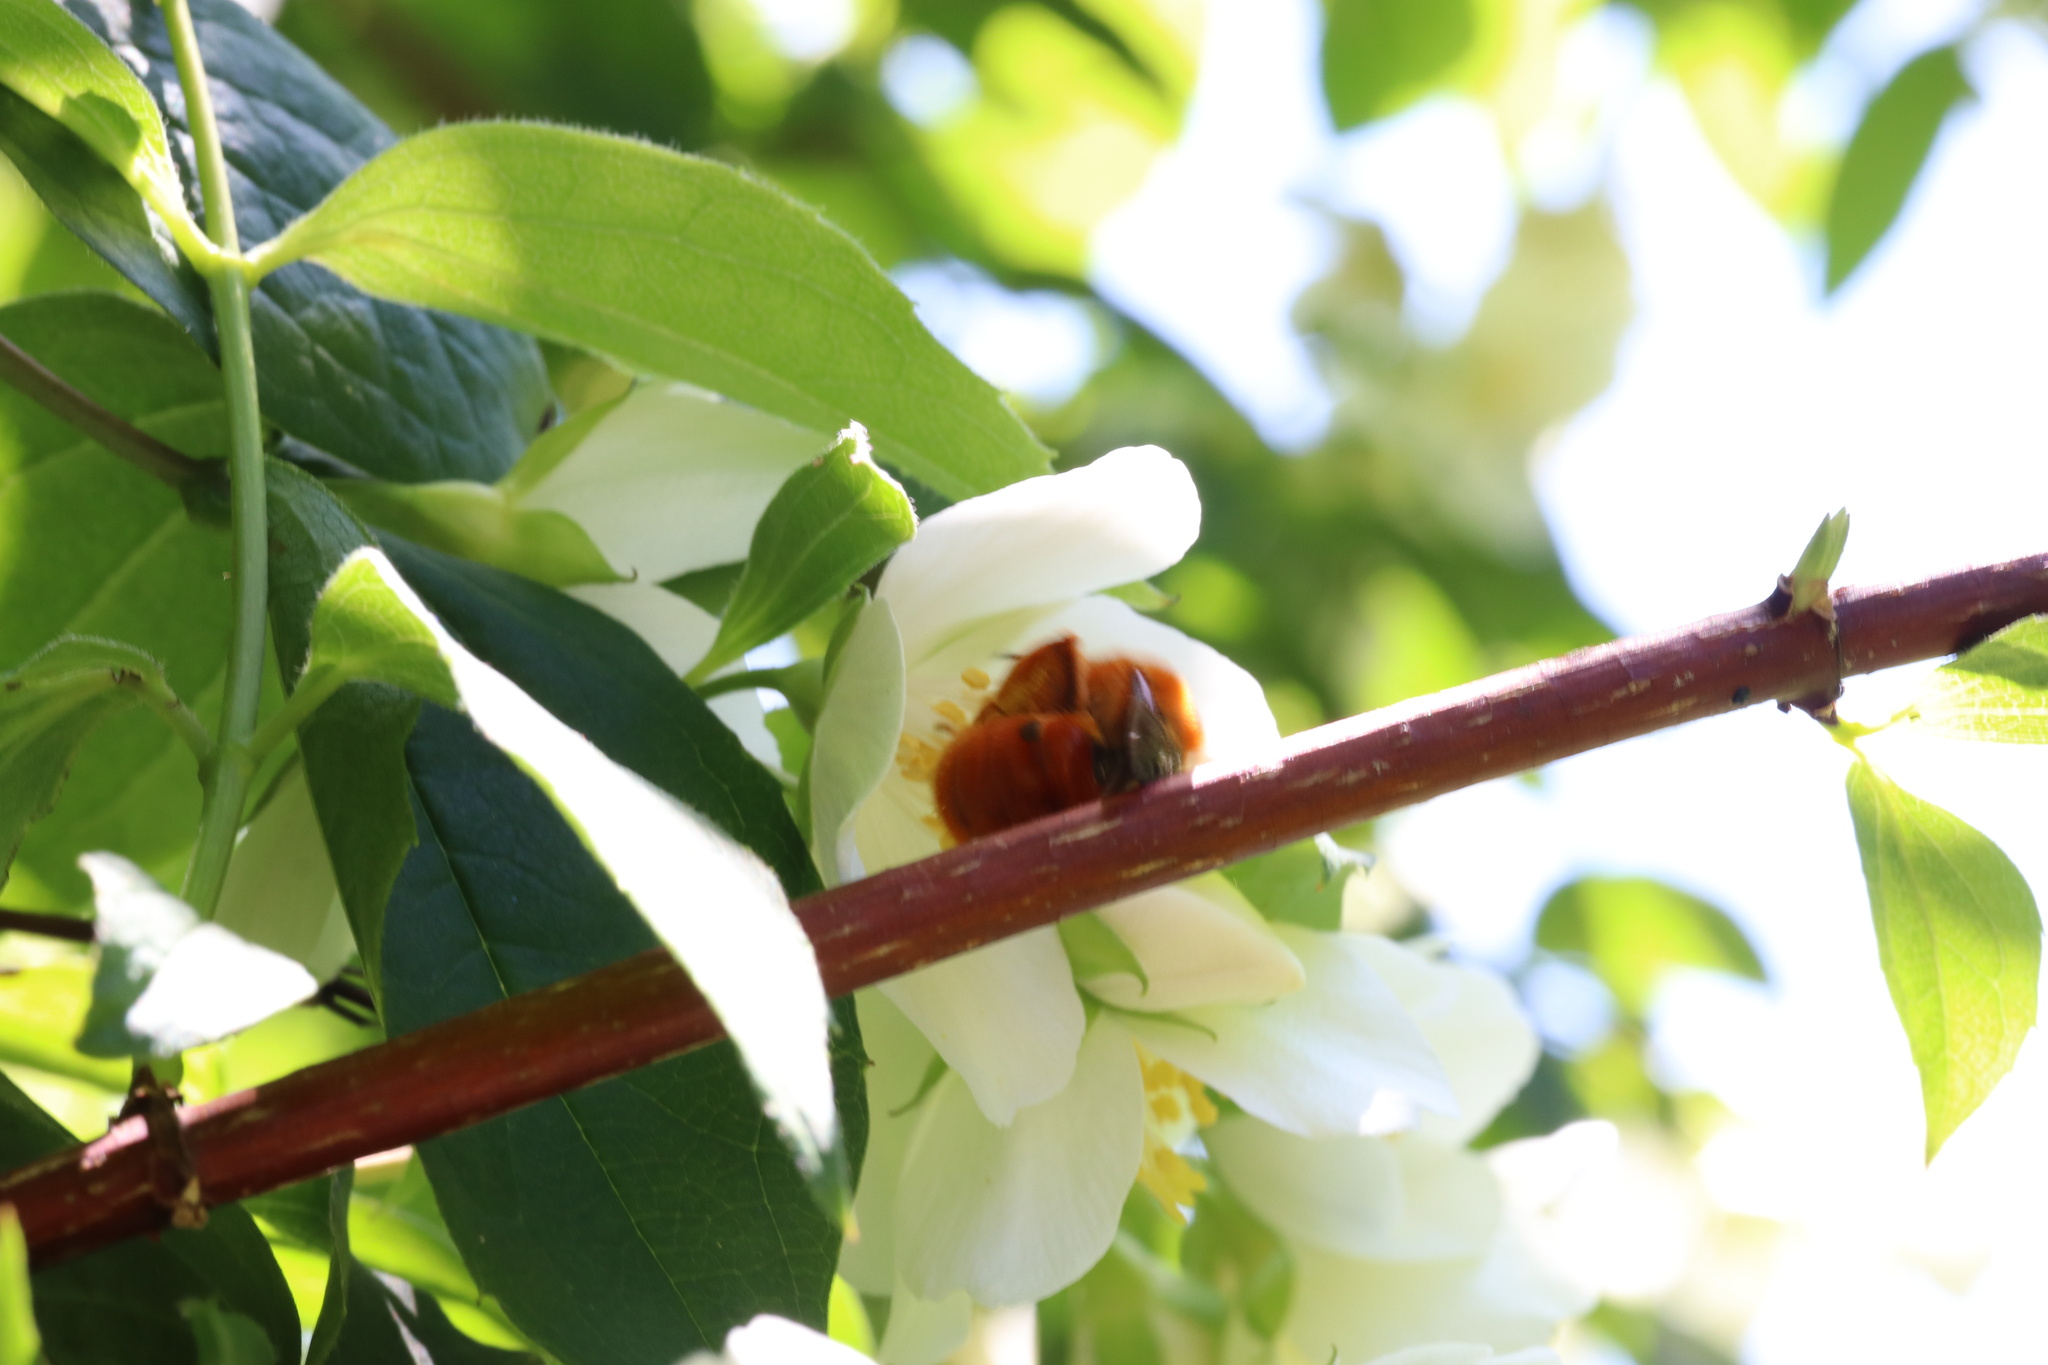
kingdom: Animalia
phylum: Arthropoda
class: Insecta
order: Hymenoptera
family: Colletidae
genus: Diphaglossa
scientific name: Diphaglossa gayi
